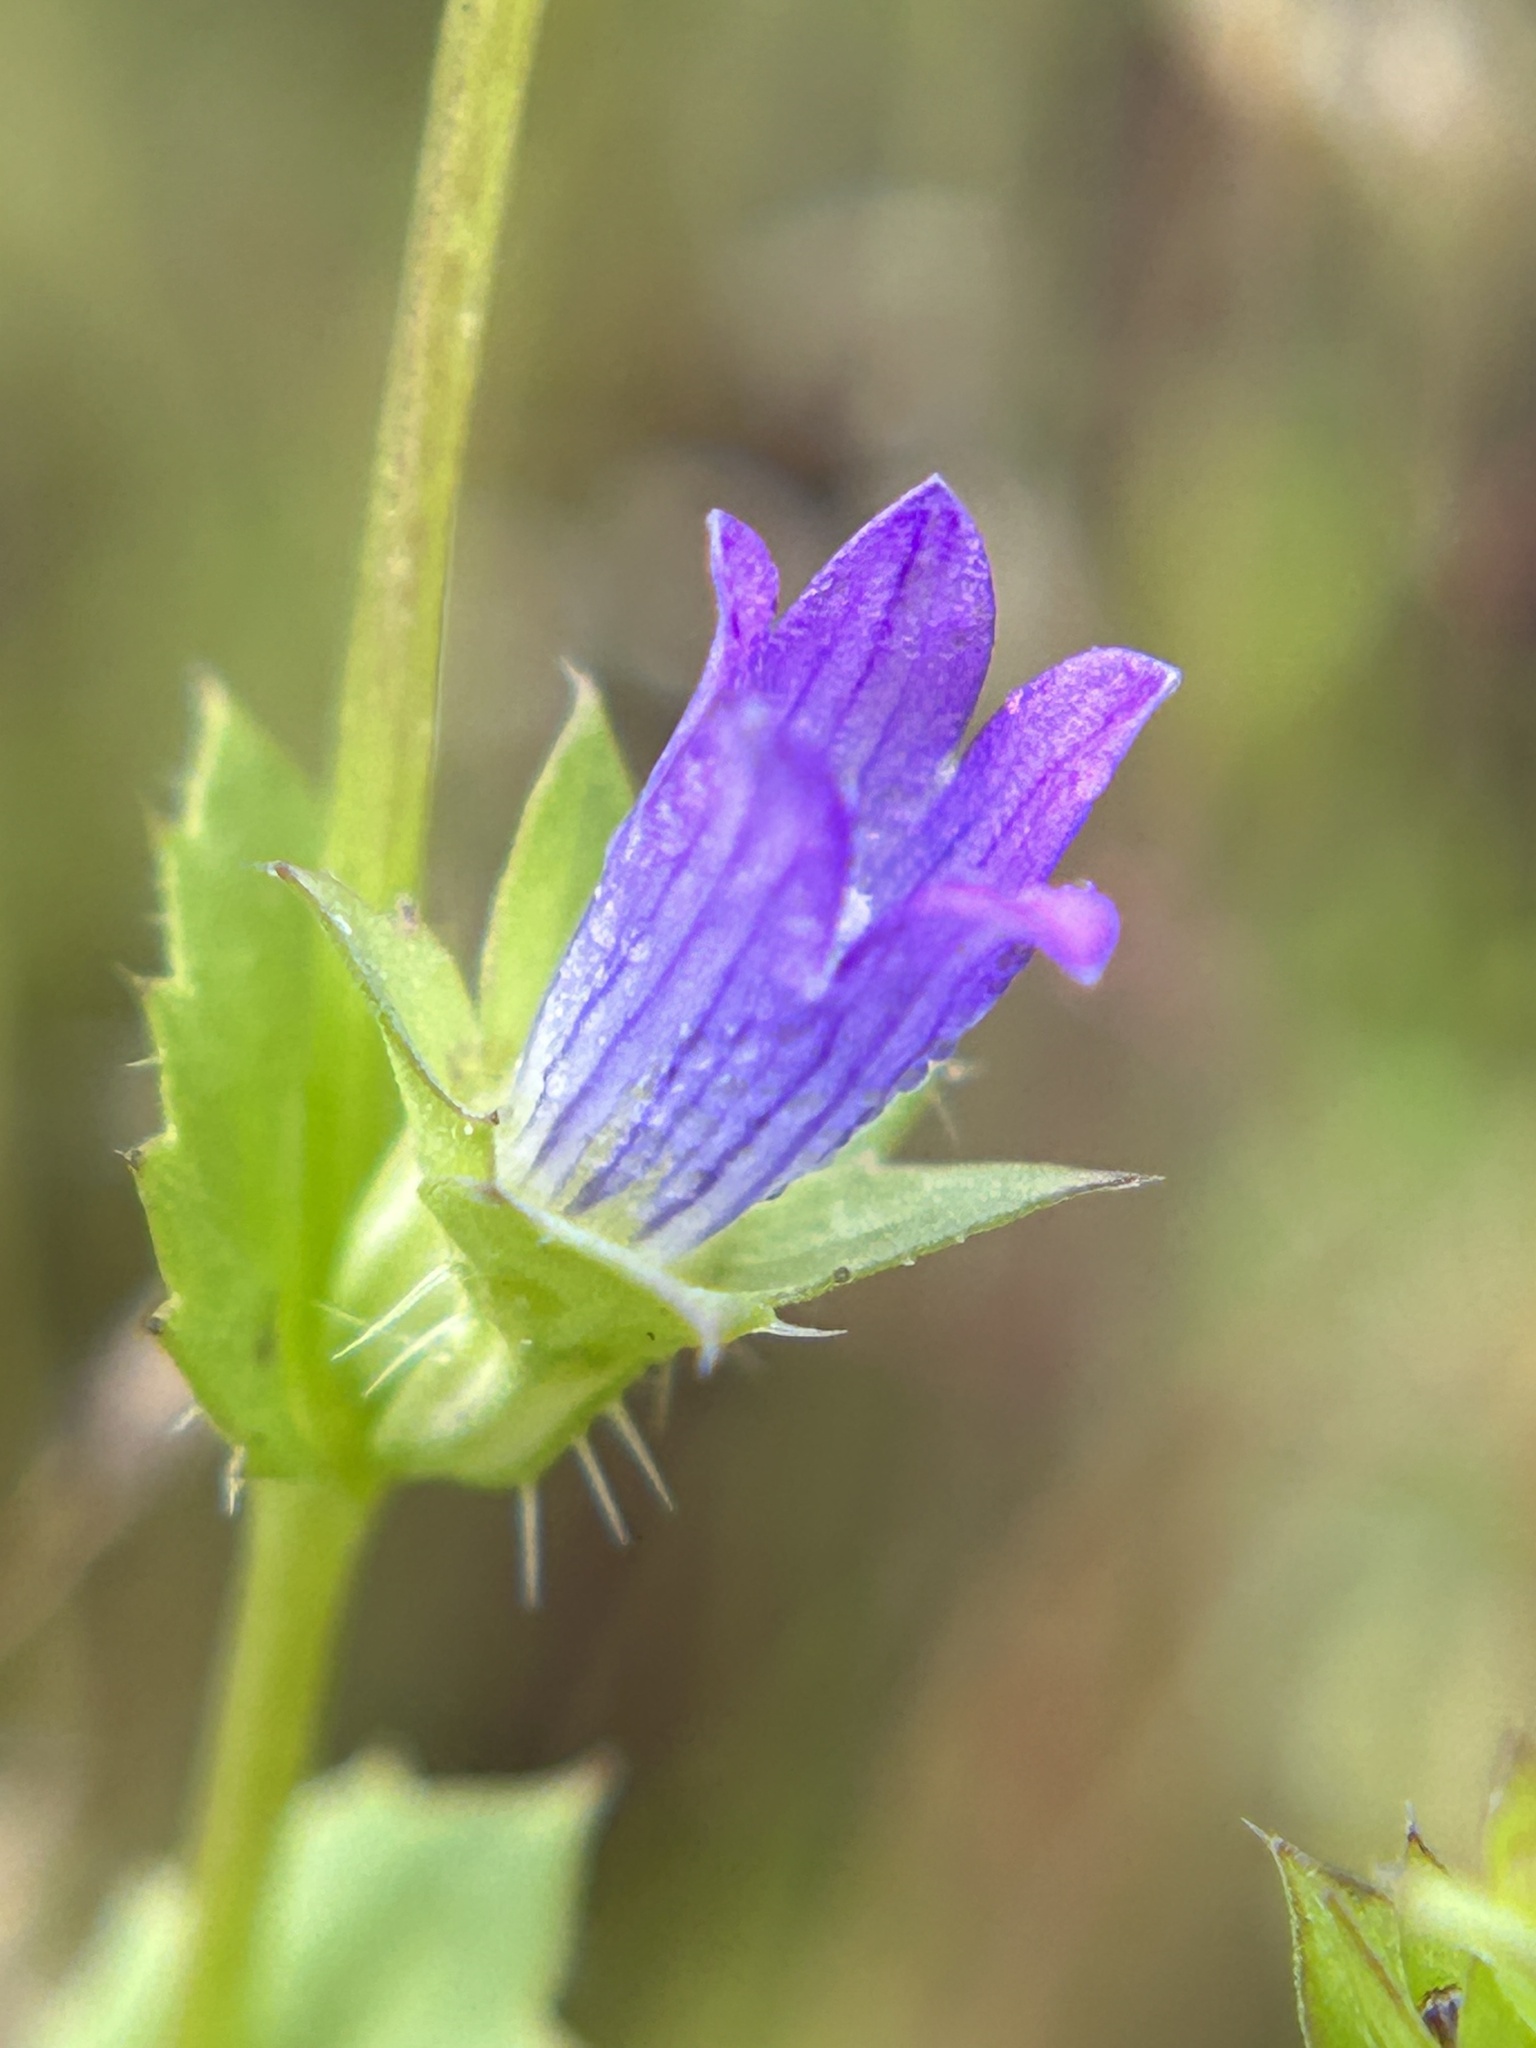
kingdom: Plantae
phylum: Tracheophyta
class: Magnoliopsida
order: Asterales
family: Campanulaceae
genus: Heterocodon
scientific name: Heterocodon rariflorum
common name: Rareflower heterocodon
